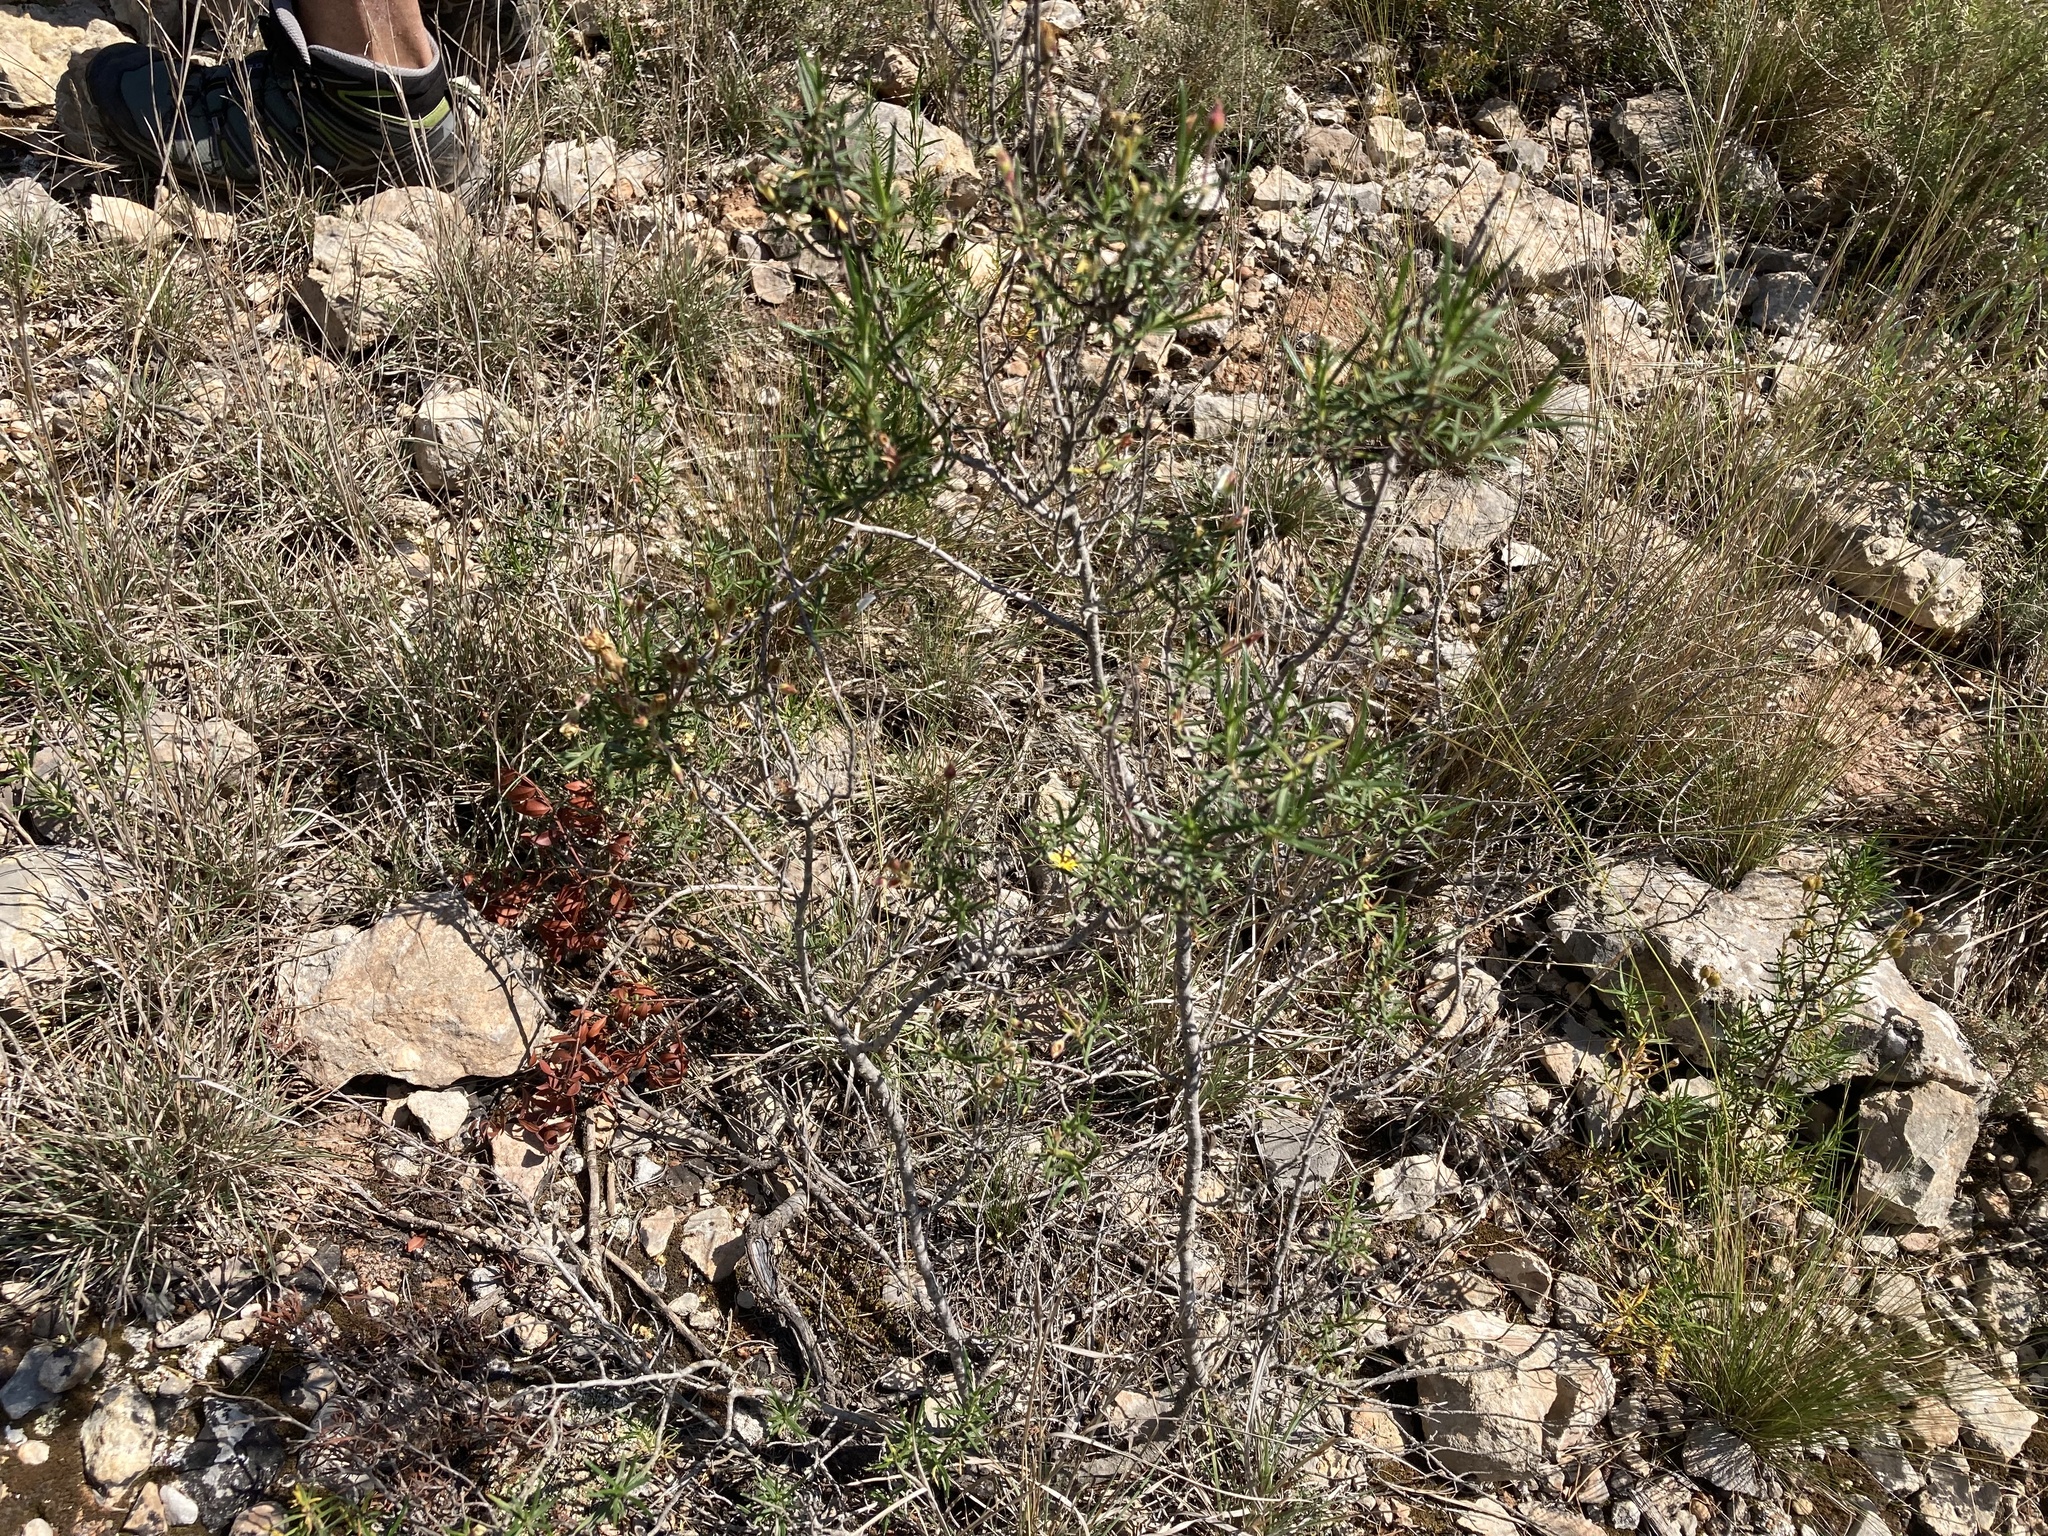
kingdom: Plantae
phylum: Tracheophyta
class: Magnoliopsida
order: Malvales
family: Cistaceae
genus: Cistus
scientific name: Cistus clusii
